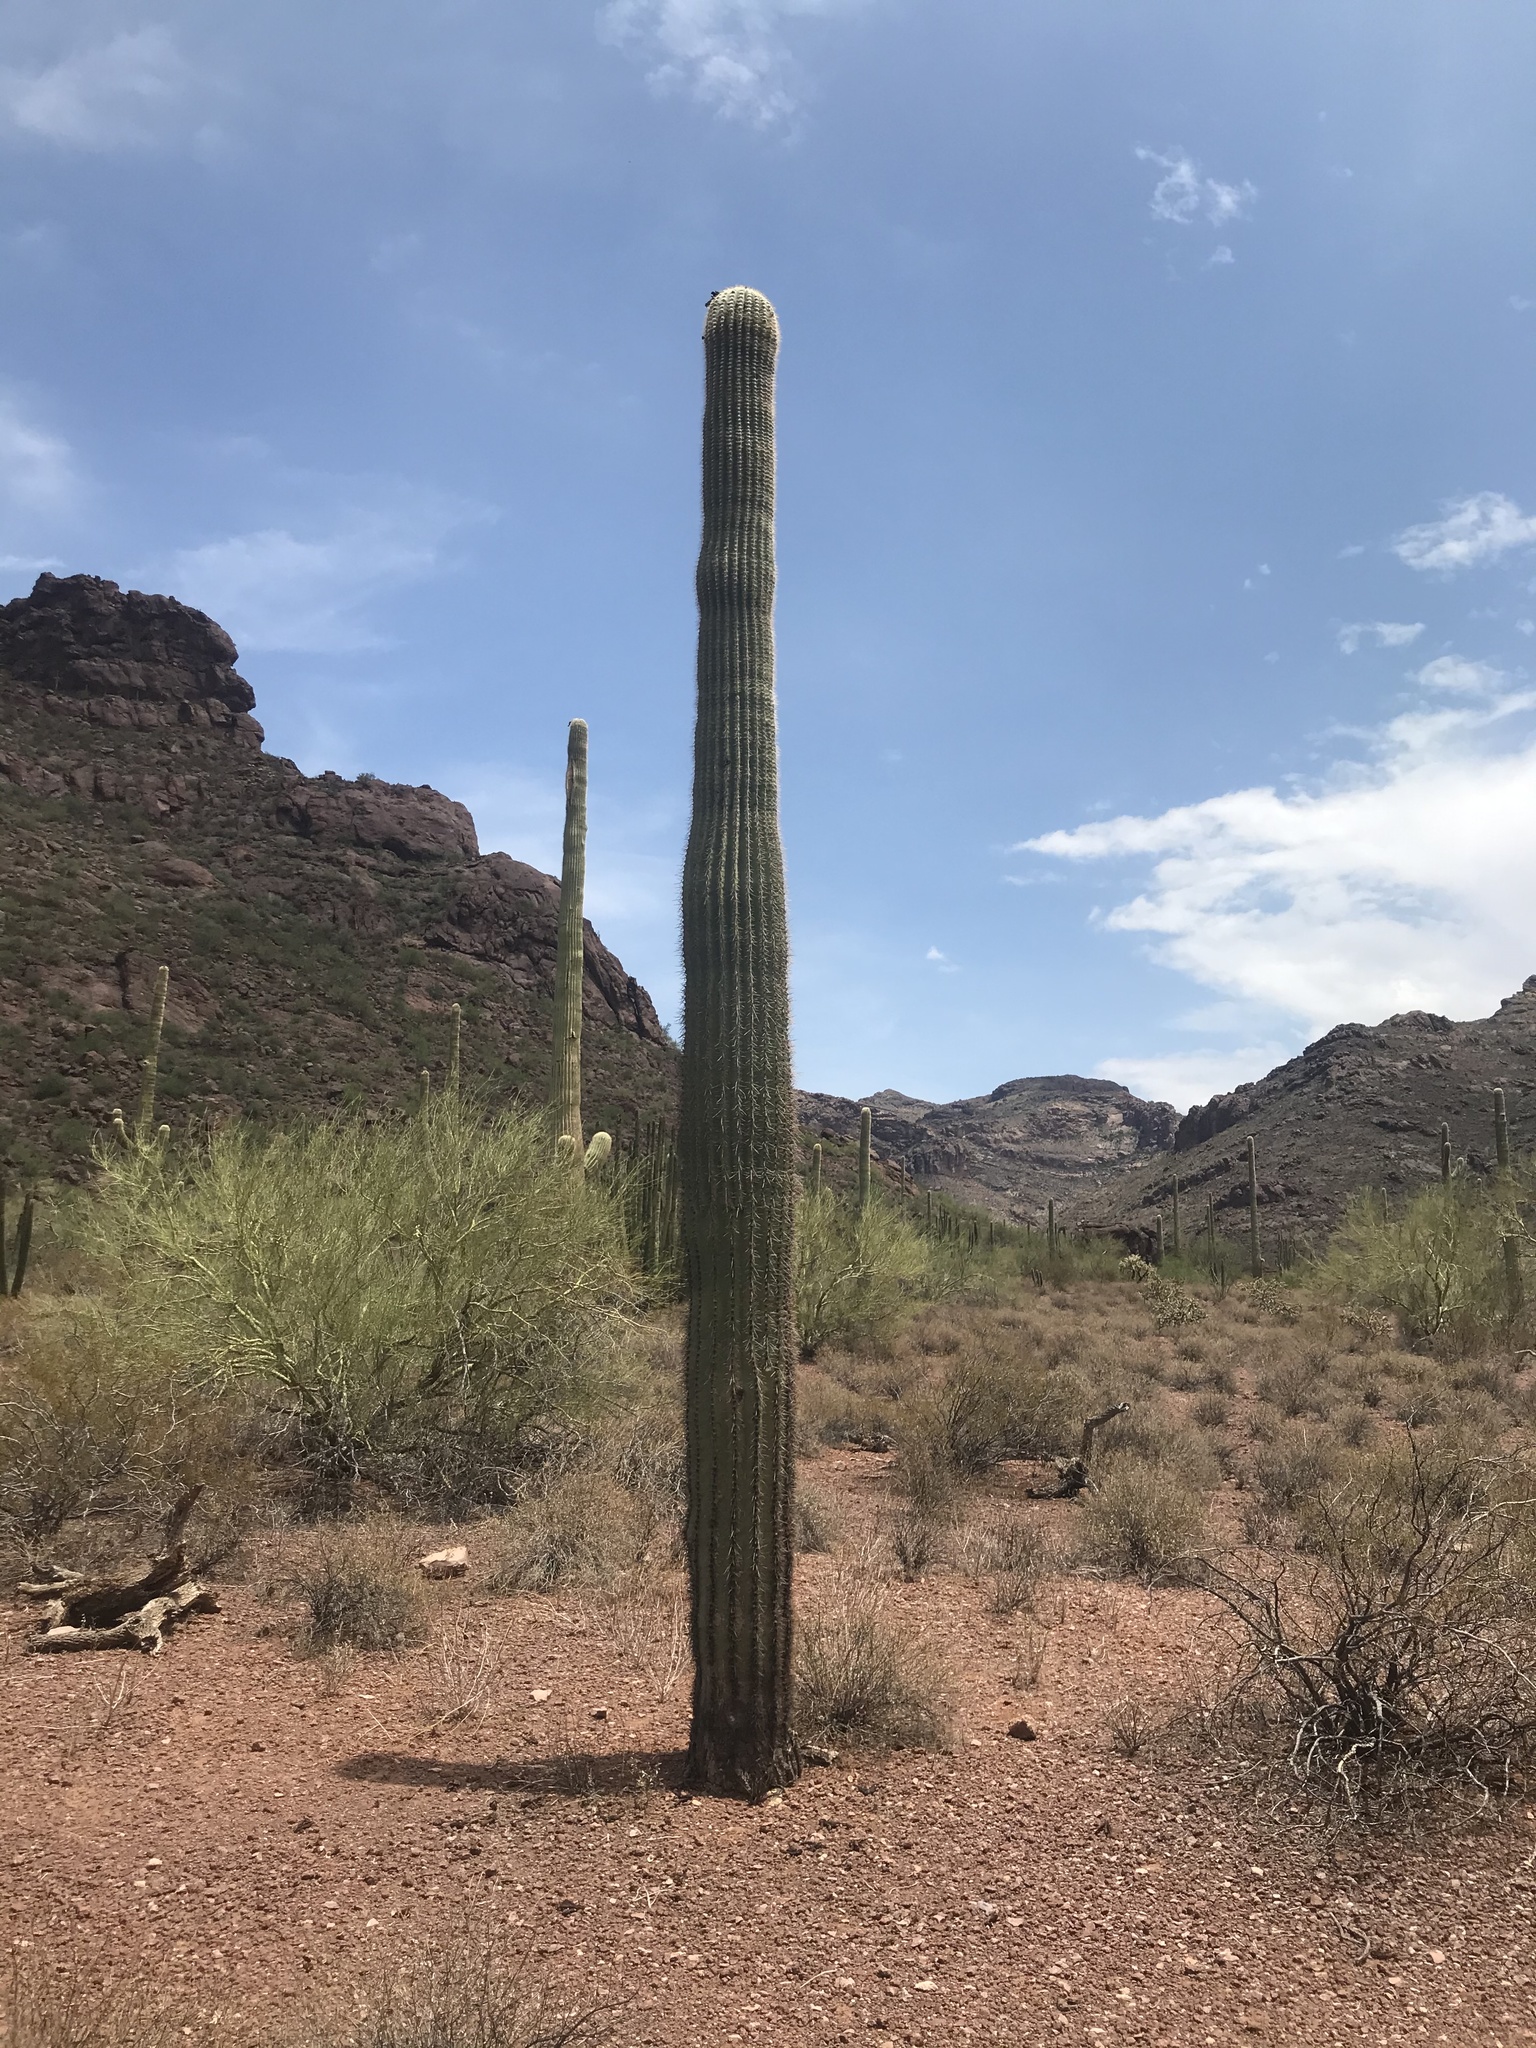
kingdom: Plantae
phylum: Tracheophyta
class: Magnoliopsida
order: Caryophyllales
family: Cactaceae
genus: Carnegiea
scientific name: Carnegiea gigantea
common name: Saguaro
